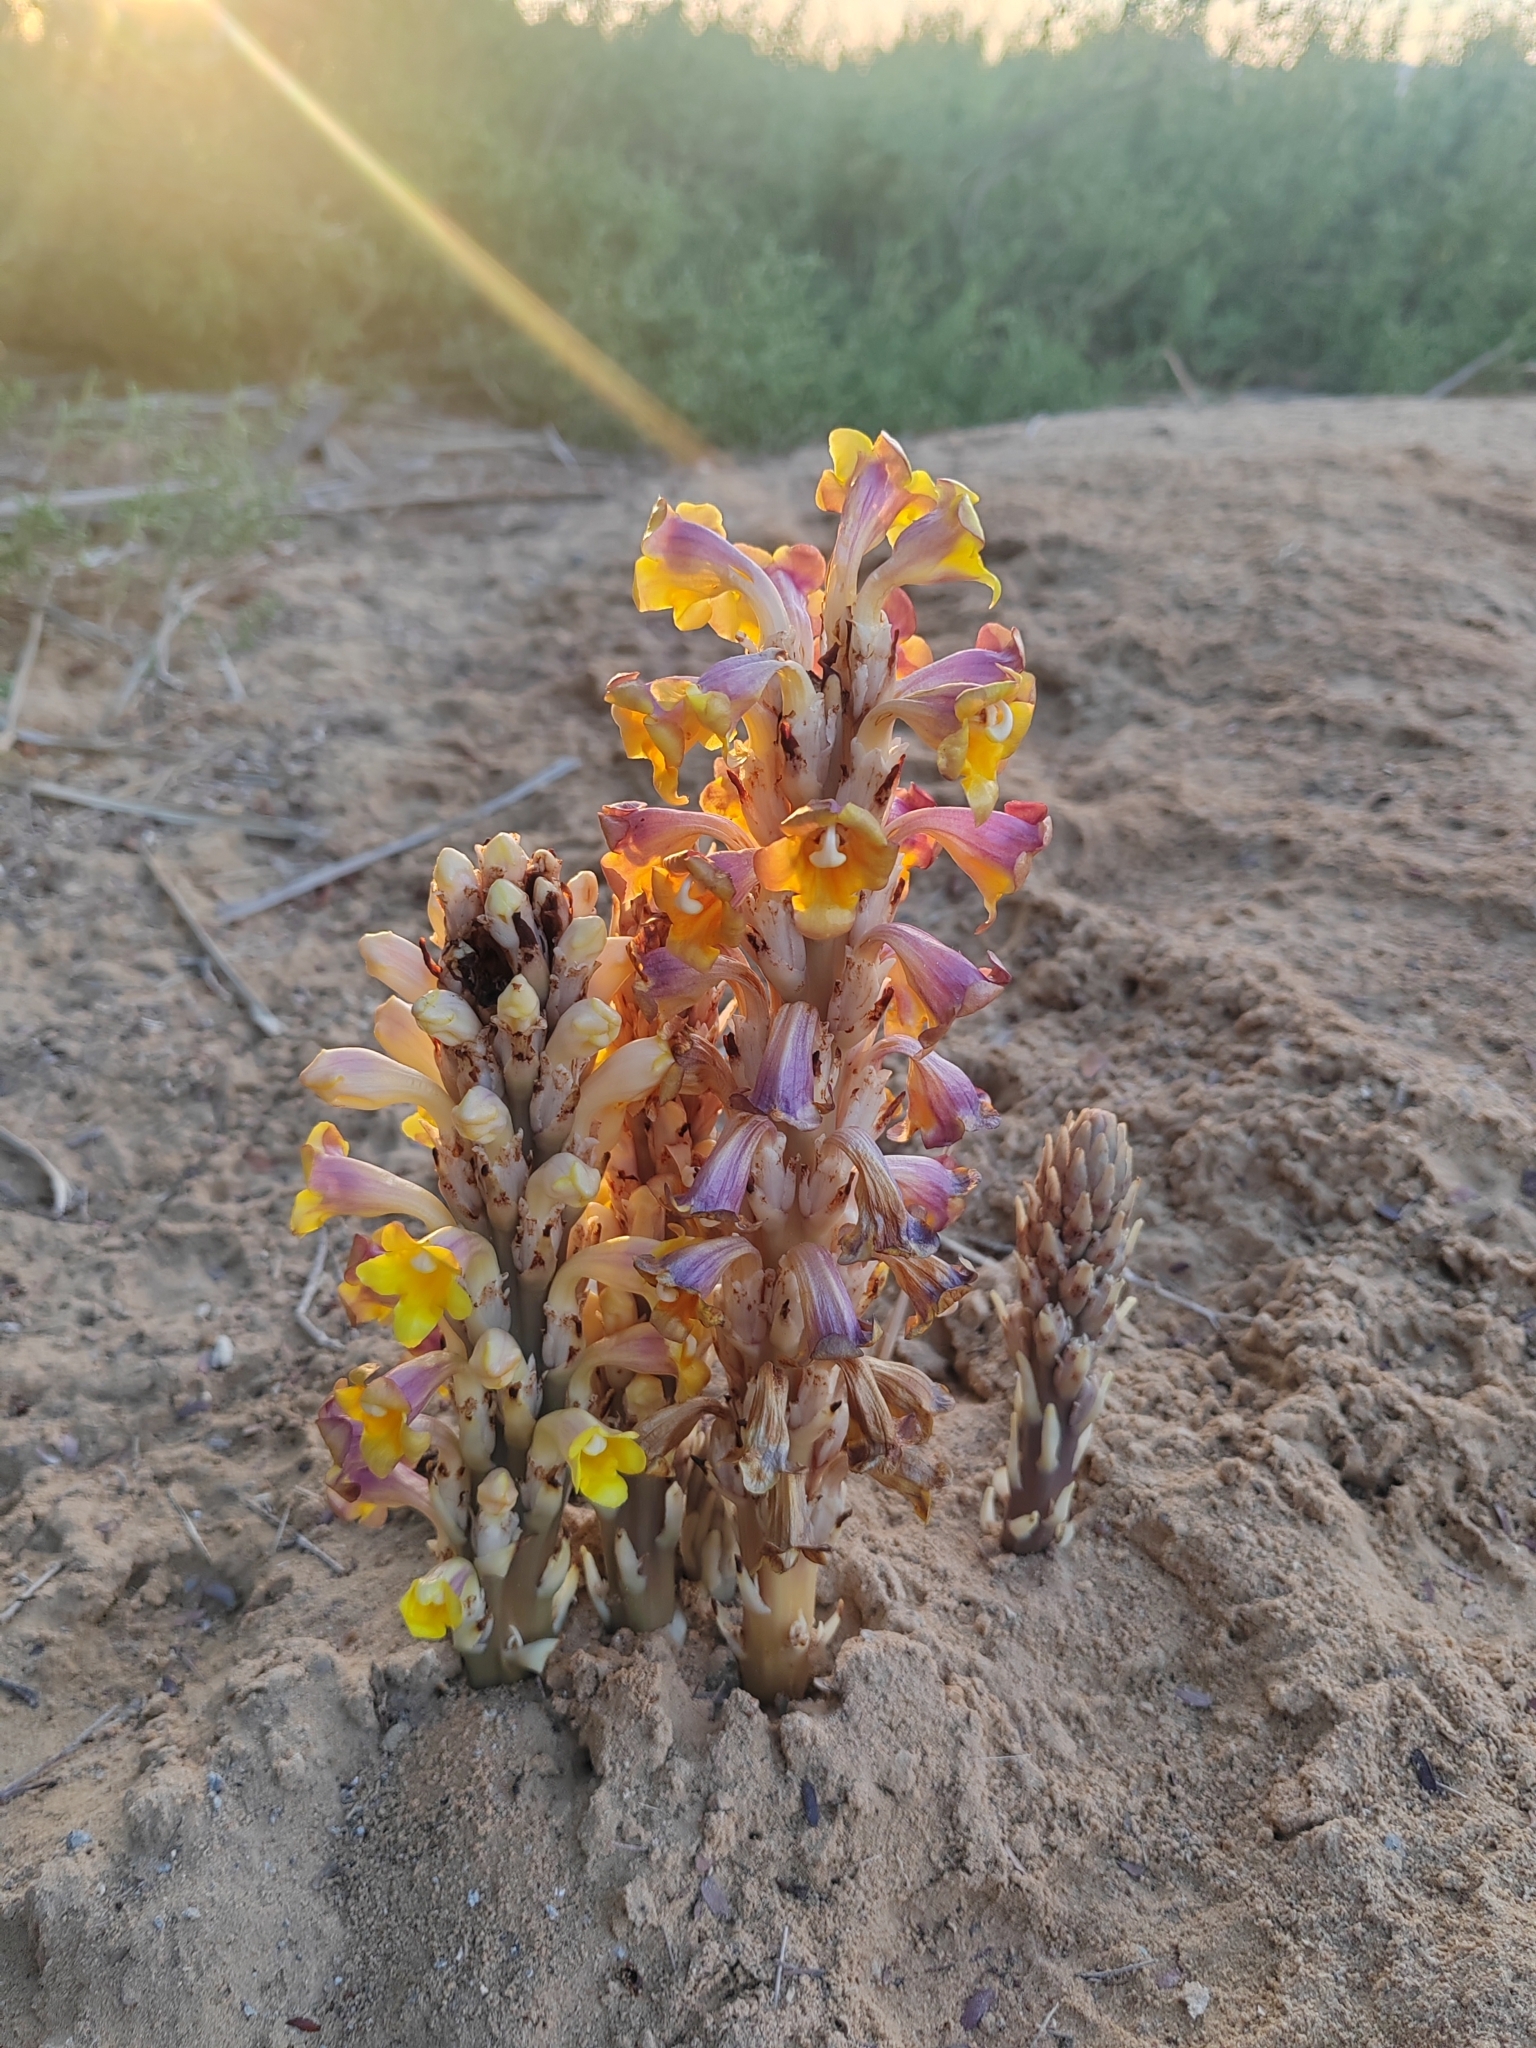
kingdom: Plantae
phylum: Tracheophyta
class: Magnoliopsida
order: Lamiales
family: Orobanchaceae
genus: Cistanche
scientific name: Cistanche tubulosa
